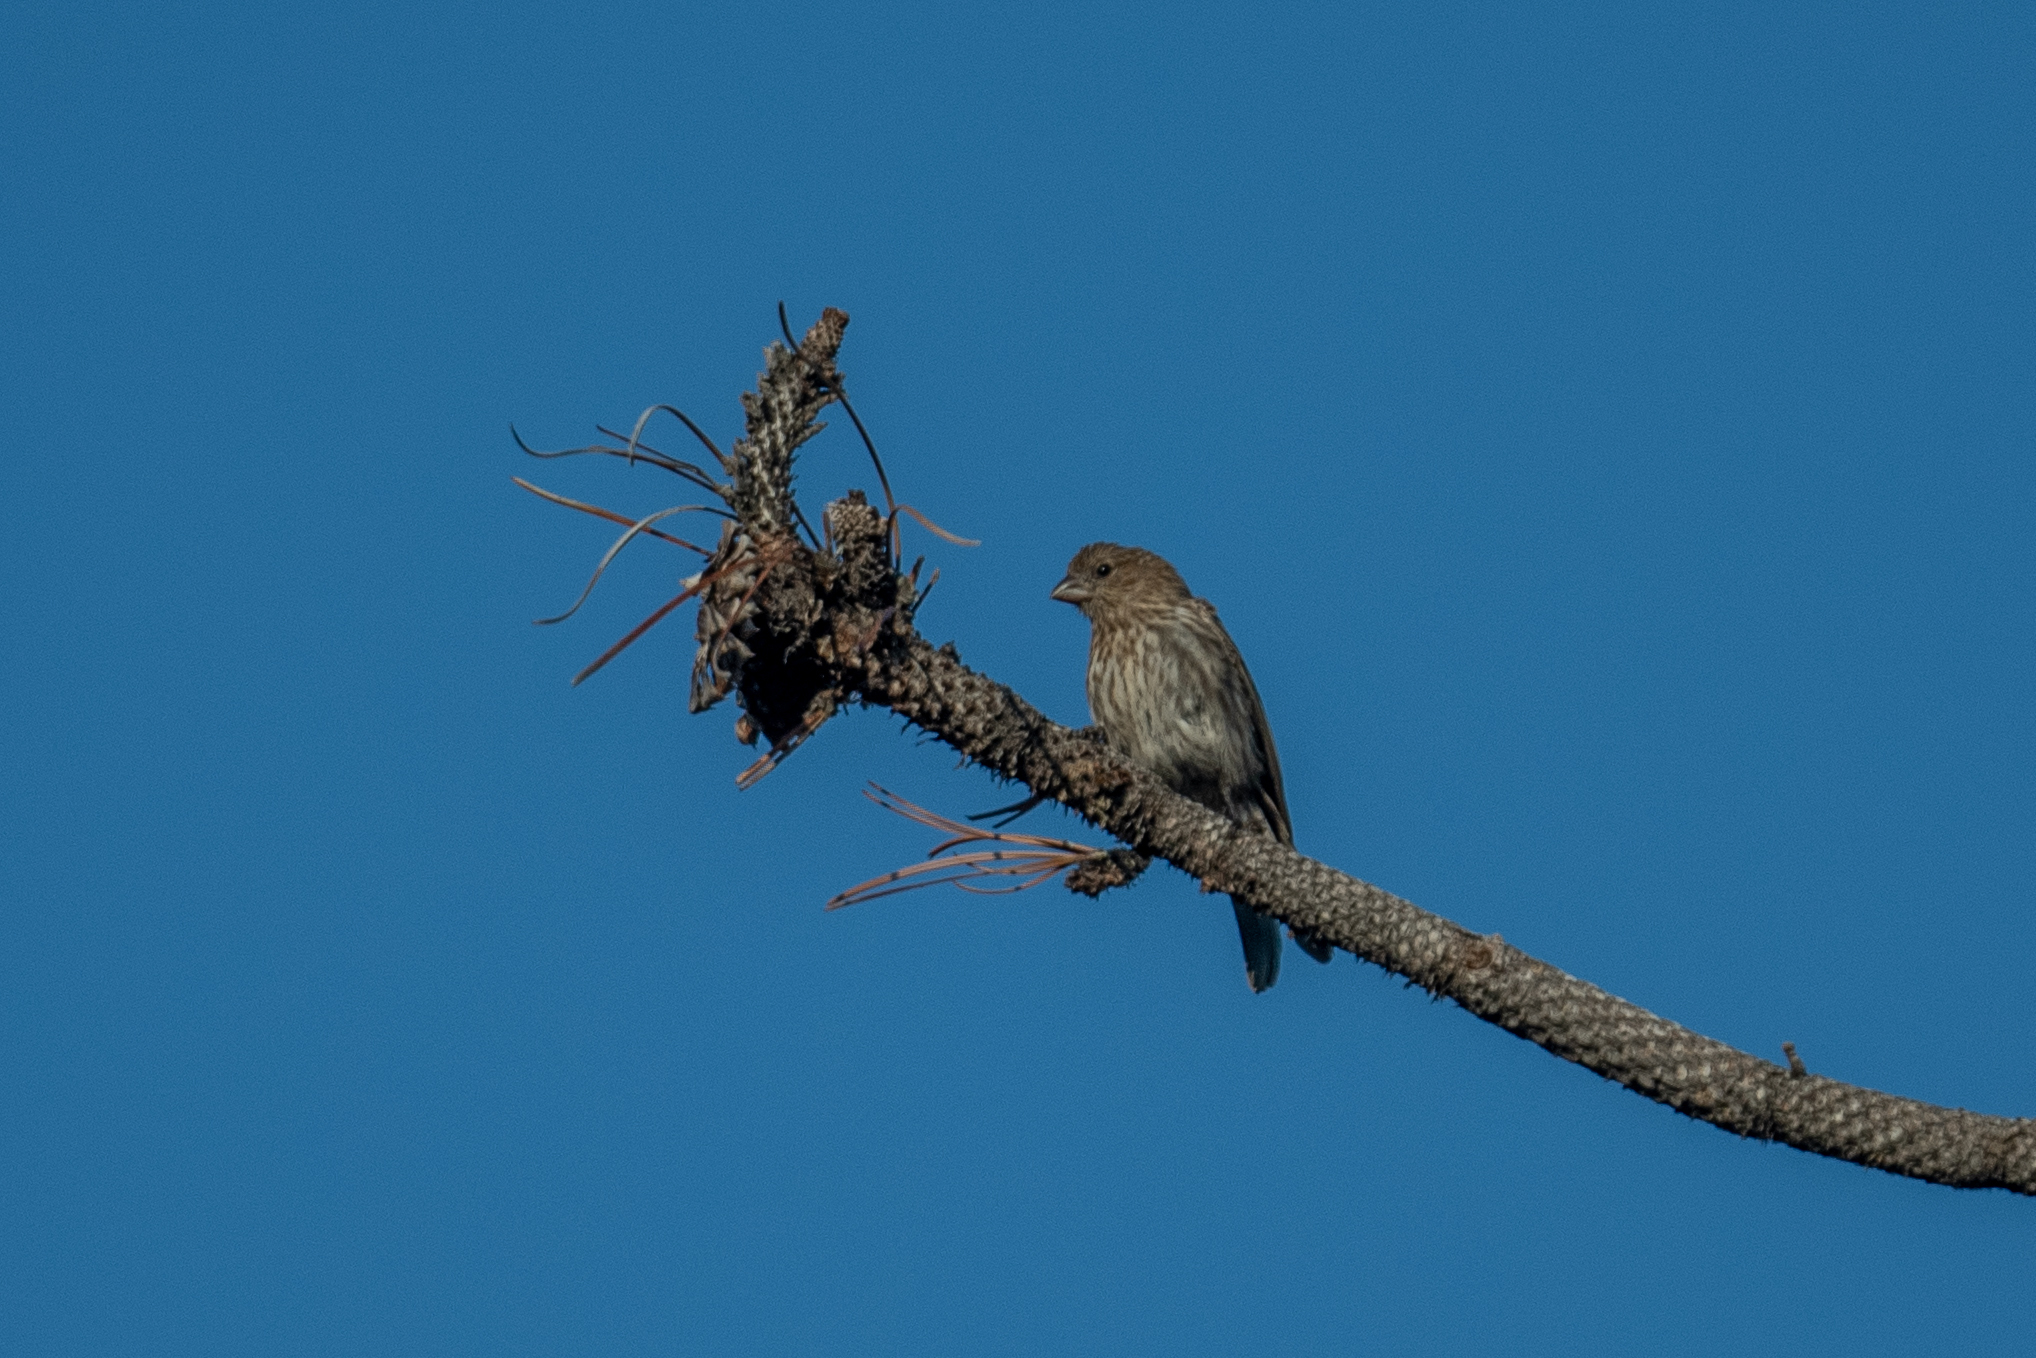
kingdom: Animalia
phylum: Chordata
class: Aves
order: Passeriformes
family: Fringillidae
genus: Haemorhous
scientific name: Haemorhous mexicanus
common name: House finch
